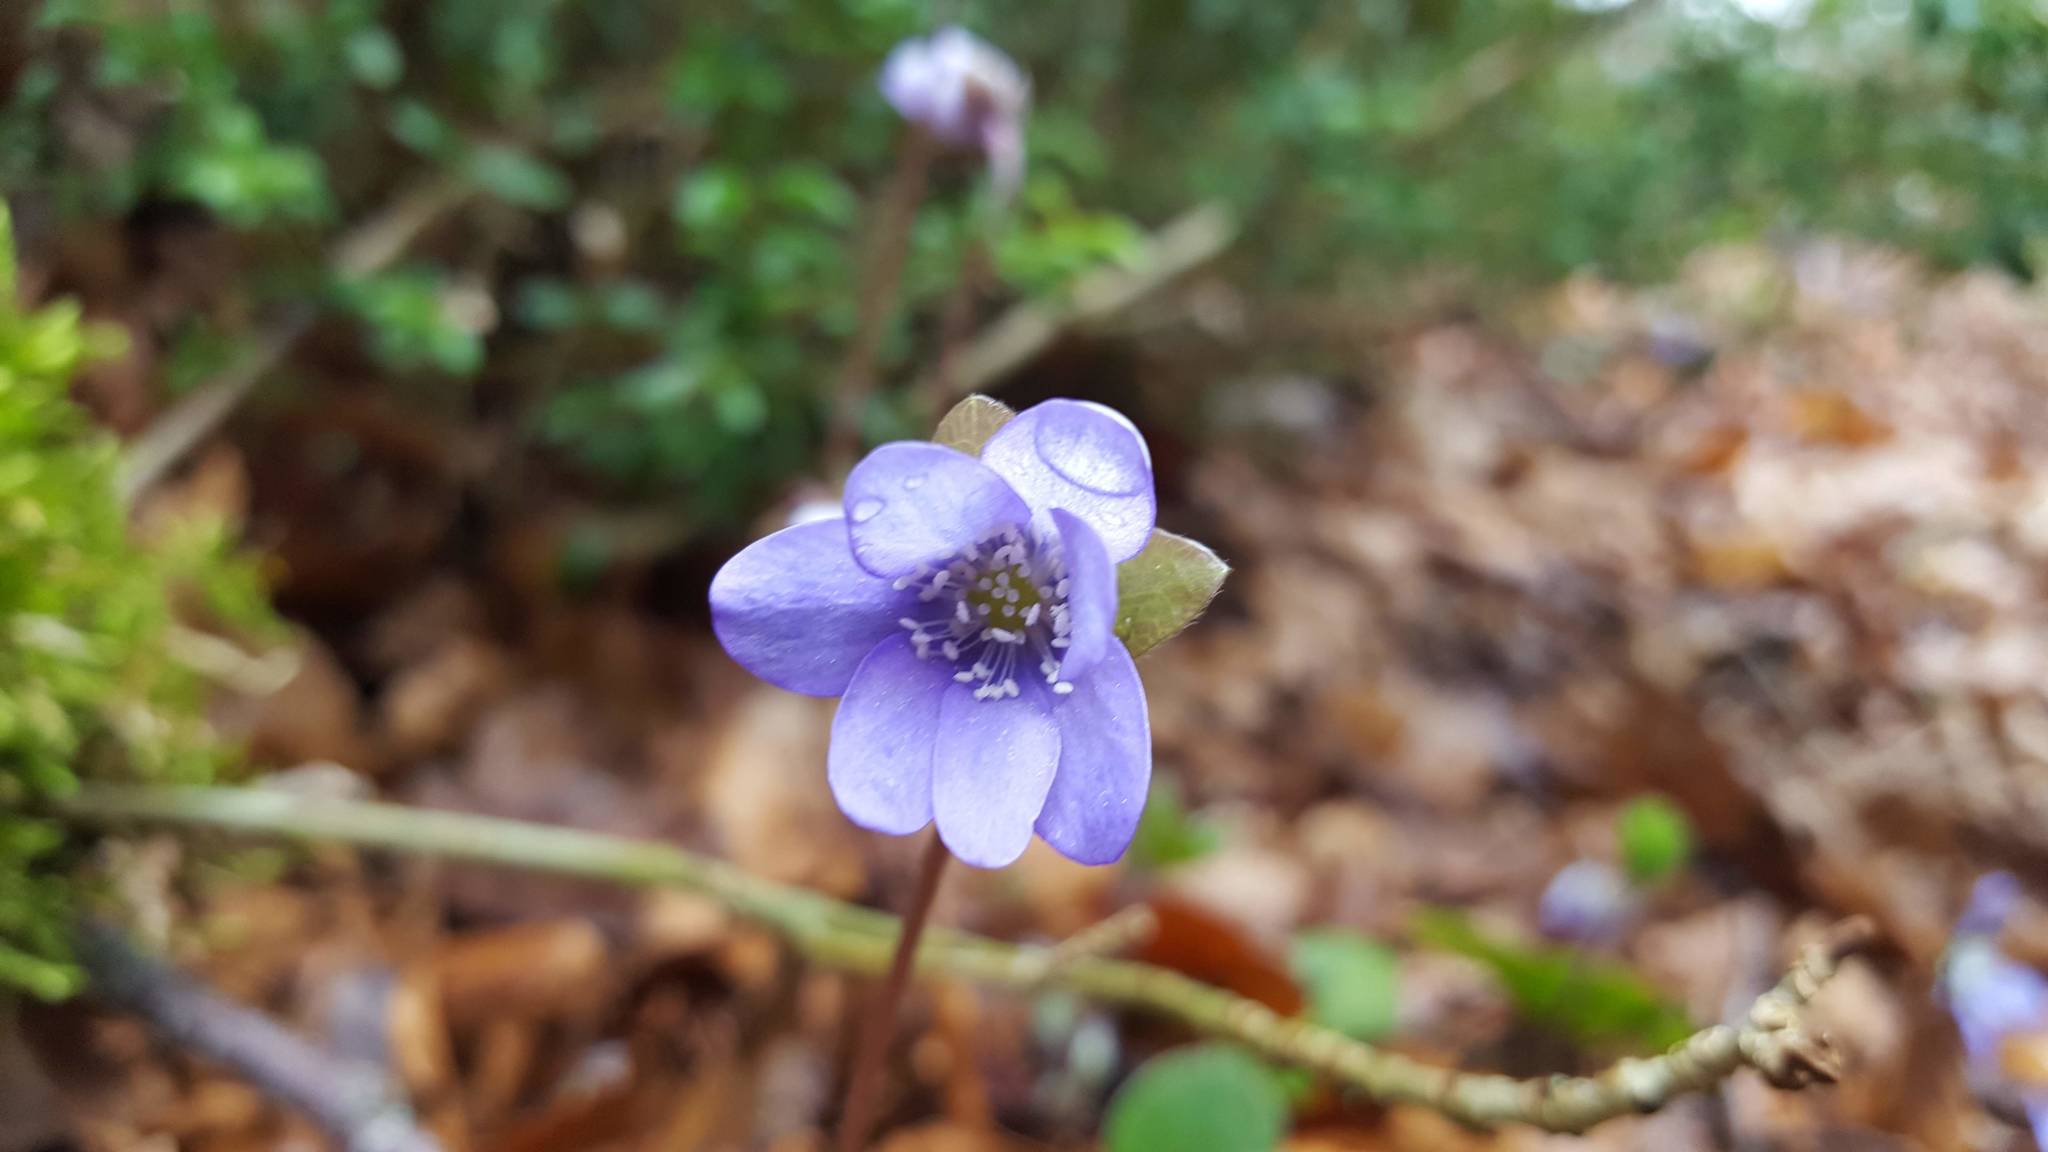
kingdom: Plantae
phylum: Tracheophyta
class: Magnoliopsida
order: Ranunculales
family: Ranunculaceae
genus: Hepatica
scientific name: Hepatica nobilis
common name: Liverleaf
